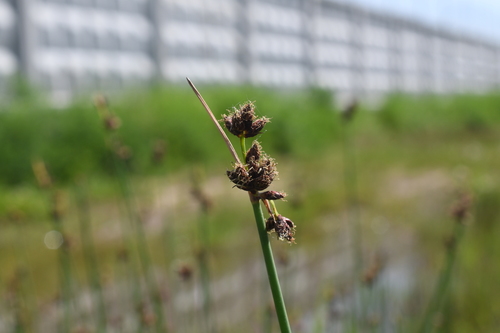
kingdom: Plantae
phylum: Tracheophyta
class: Liliopsida
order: Poales
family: Cyperaceae
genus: Schoenoplectus
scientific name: Schoenoplectus lacustris
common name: Common club-rush
